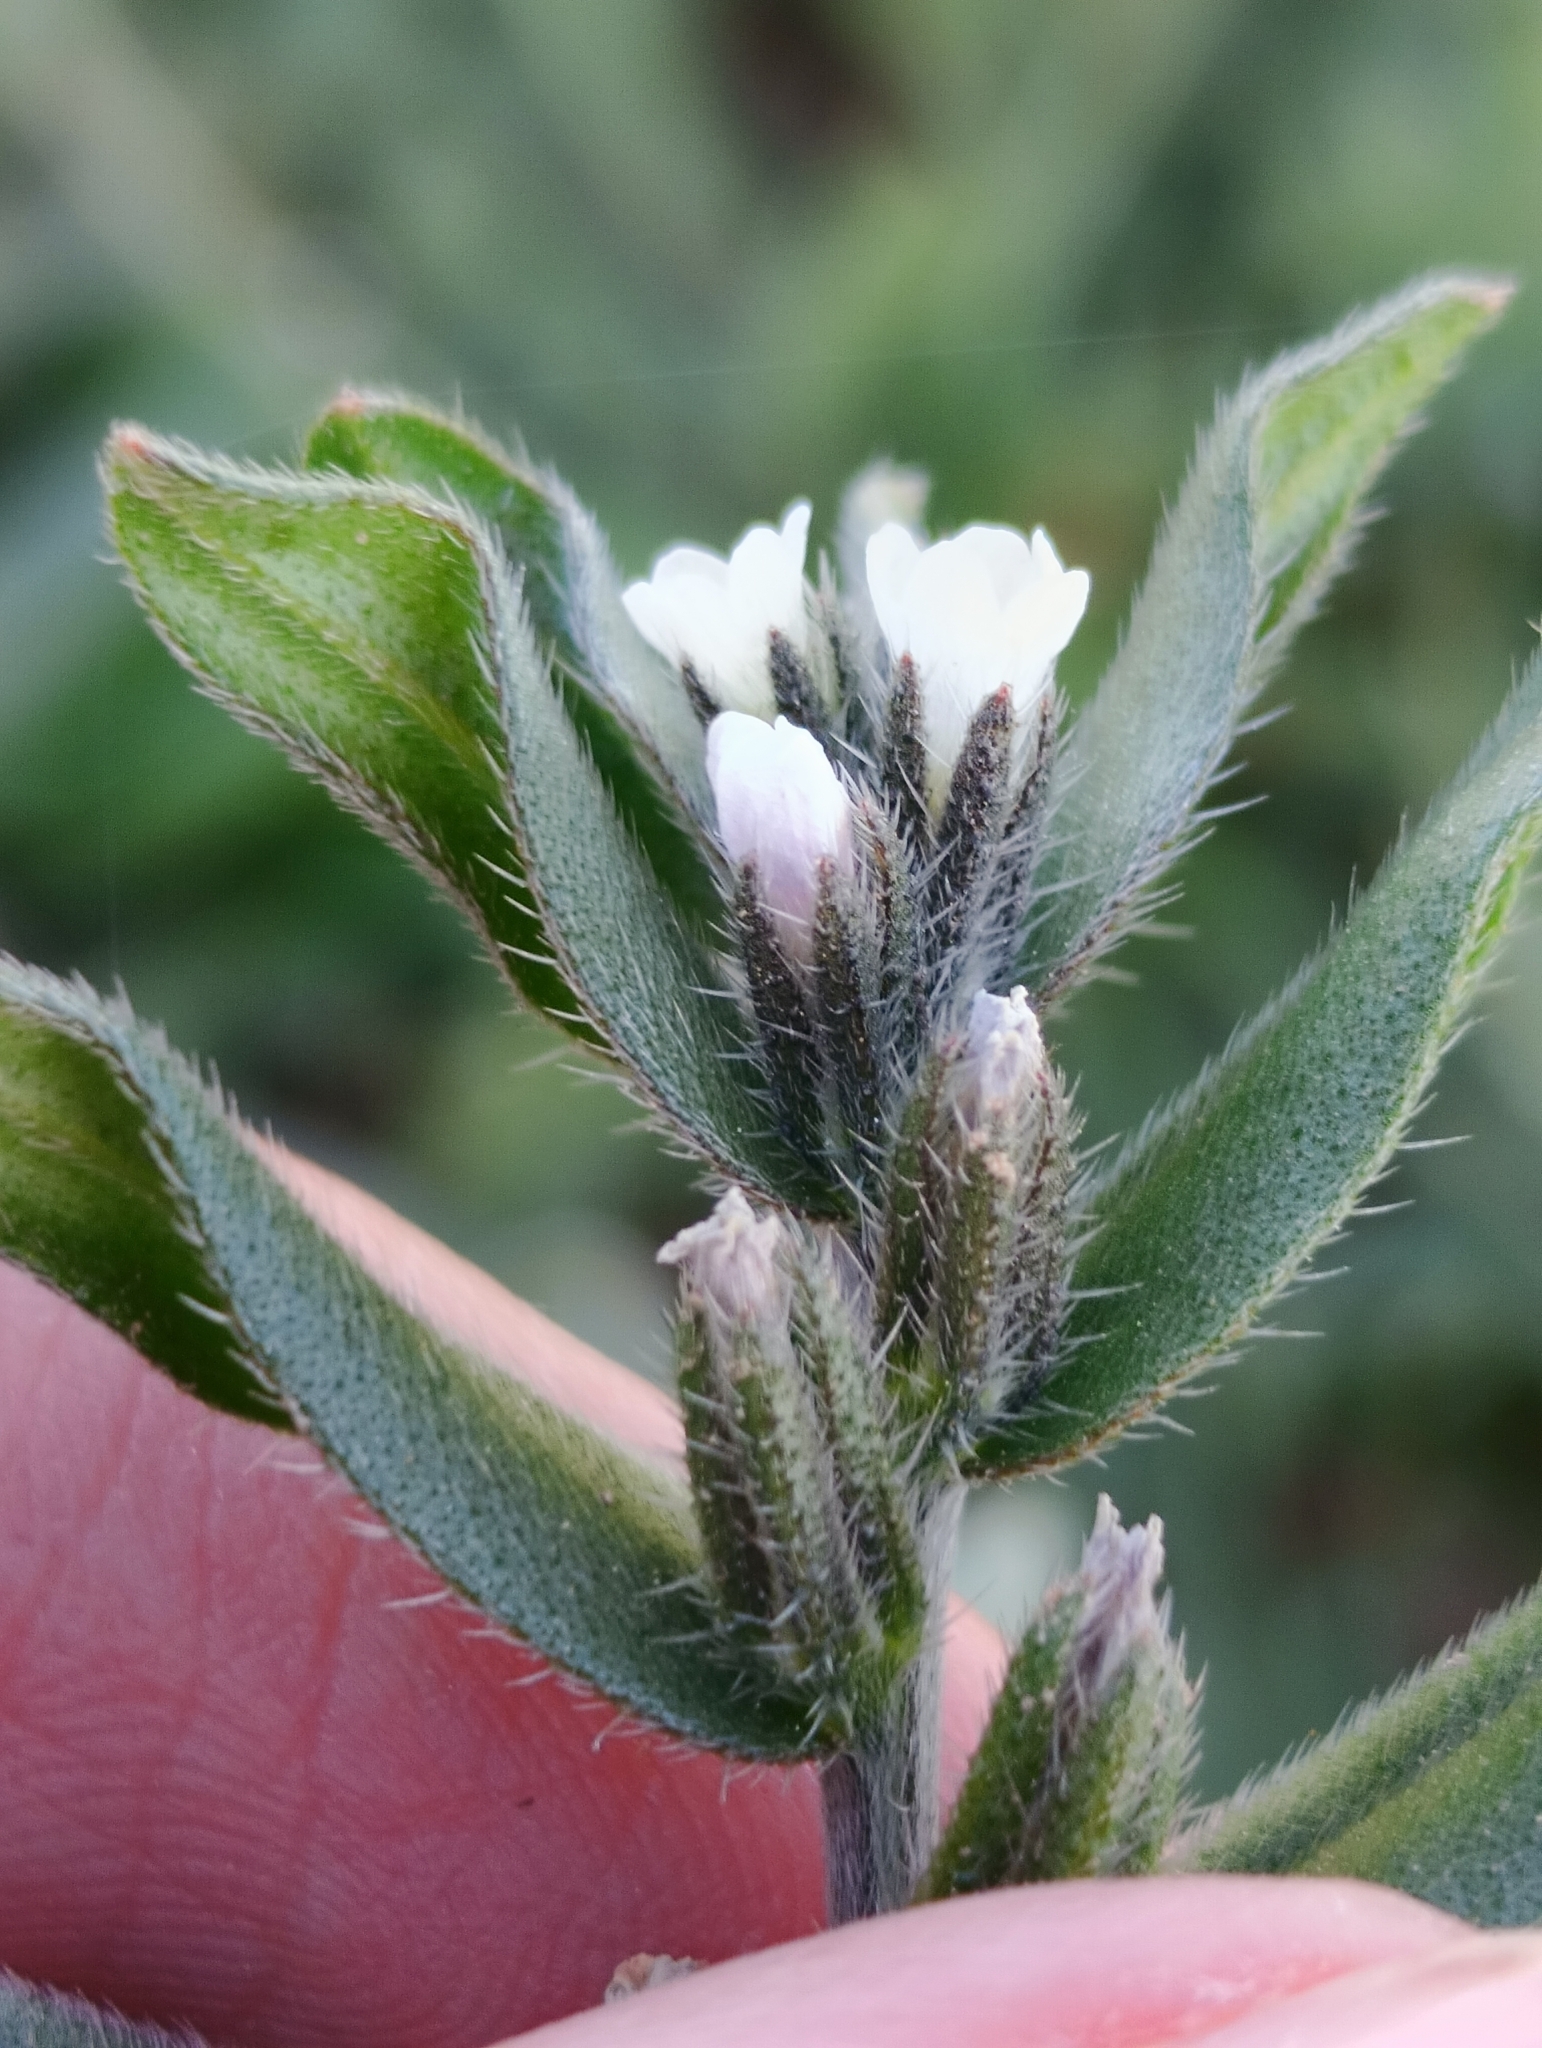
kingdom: Plantae
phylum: Tracheophyta
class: Magnoliopsida
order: Boraginales
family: Boraginaceae
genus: Buglossoides
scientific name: Buglossoides arvensis
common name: Corn gromwell
